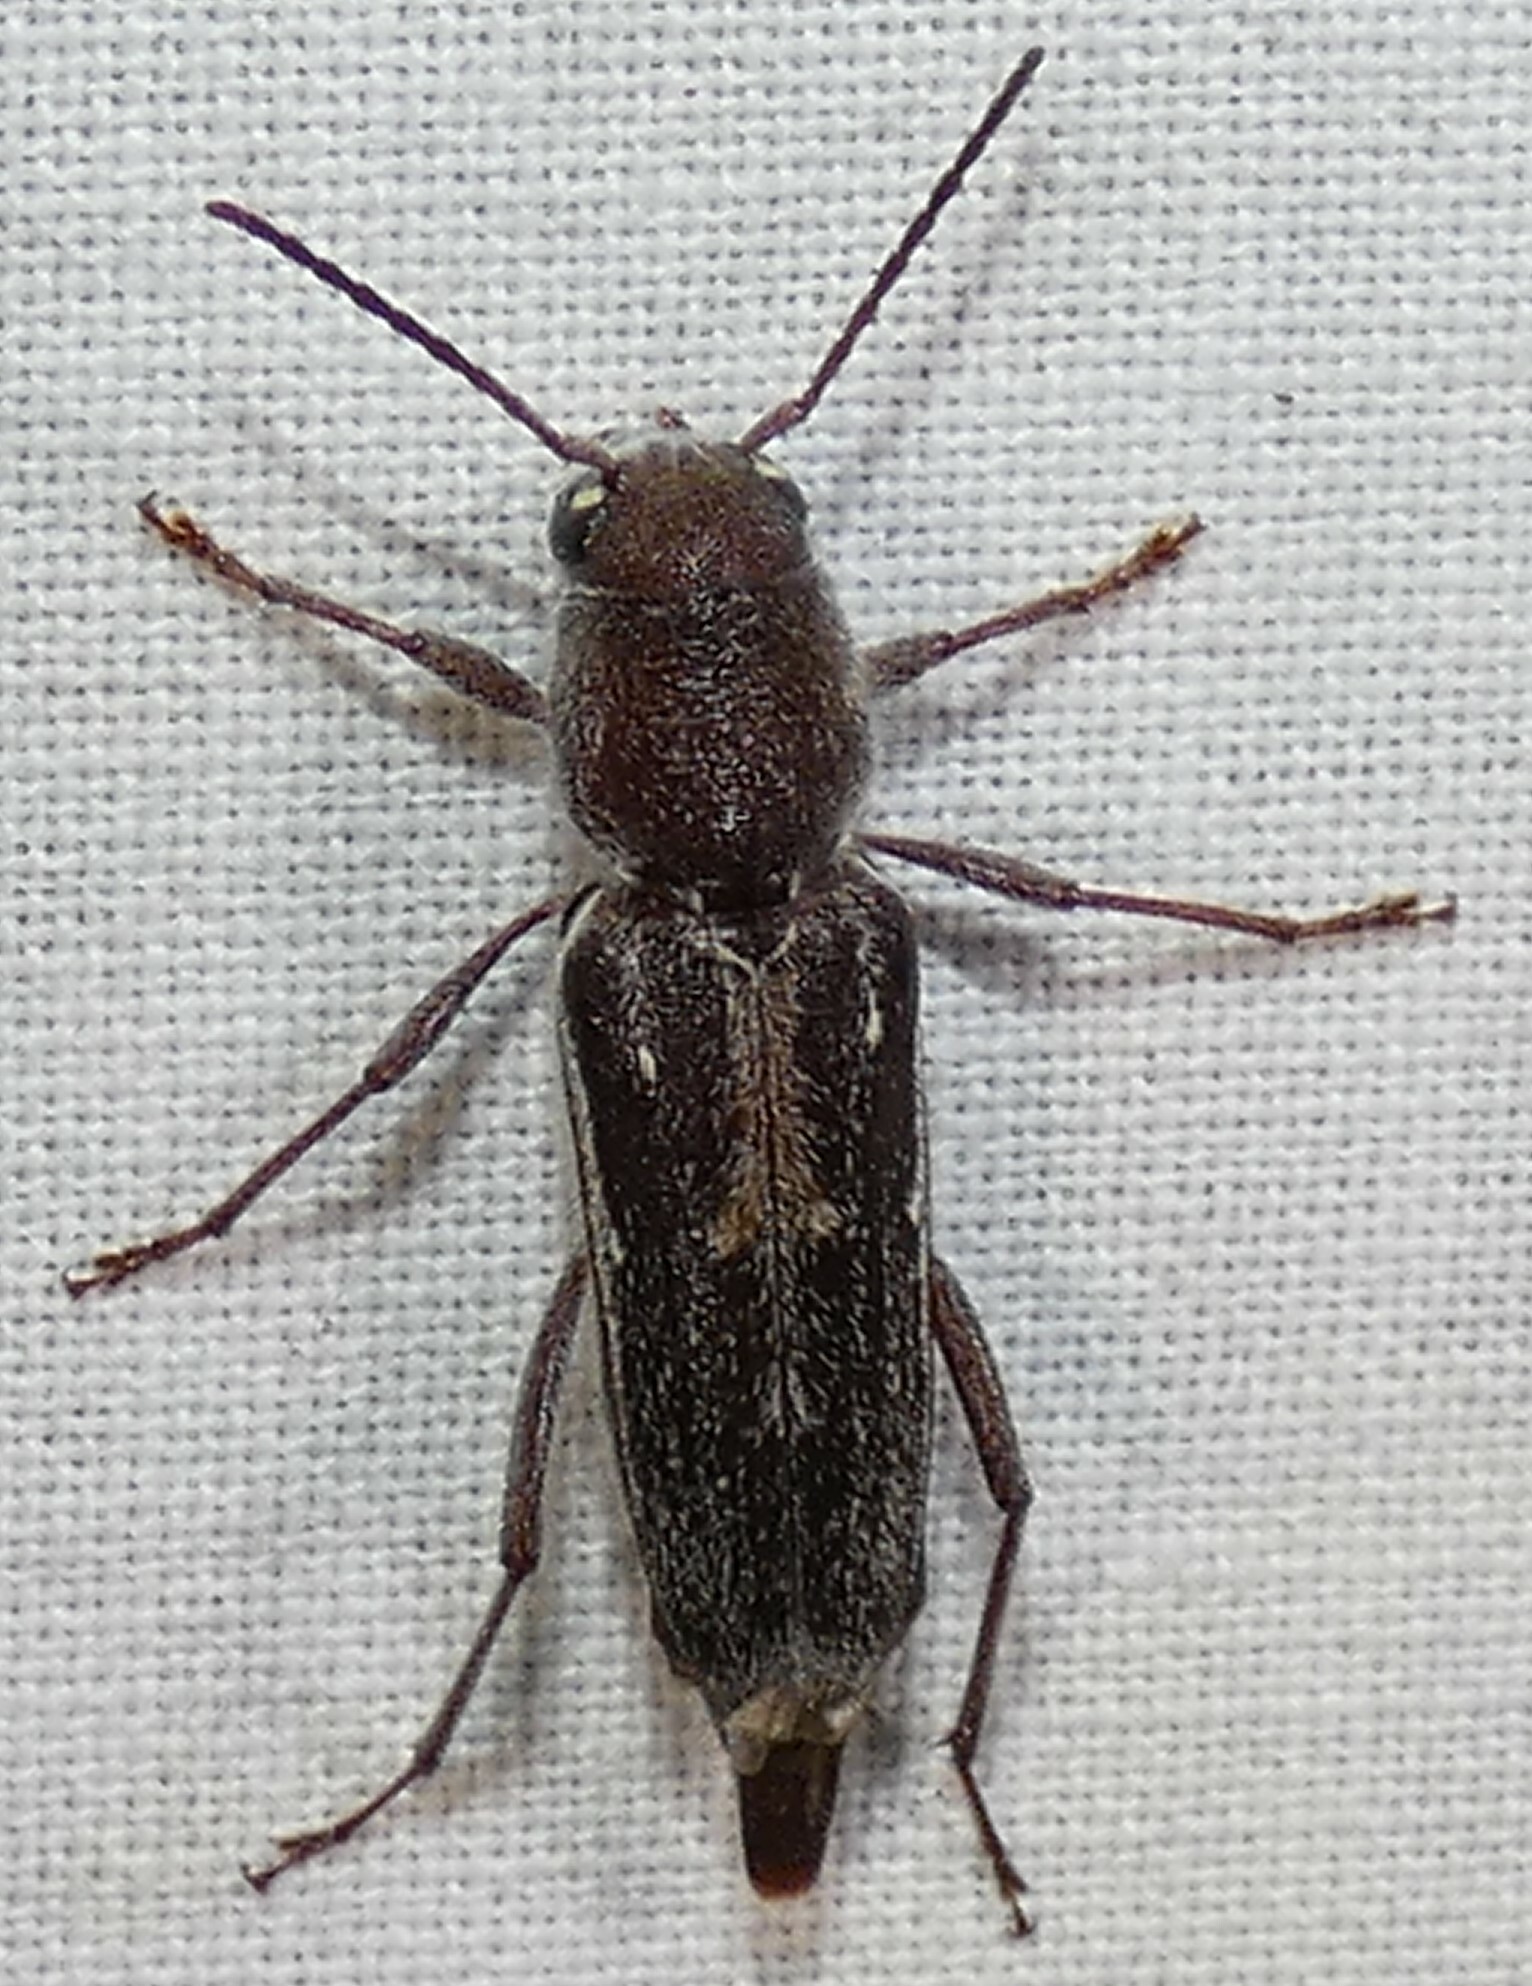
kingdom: Animalia
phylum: Arthropoda
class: Insecta
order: Coleoptera
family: Cerambycidae
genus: Xylotrechus
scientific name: Xylotrechus sagittatus
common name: Arrowhead borer
